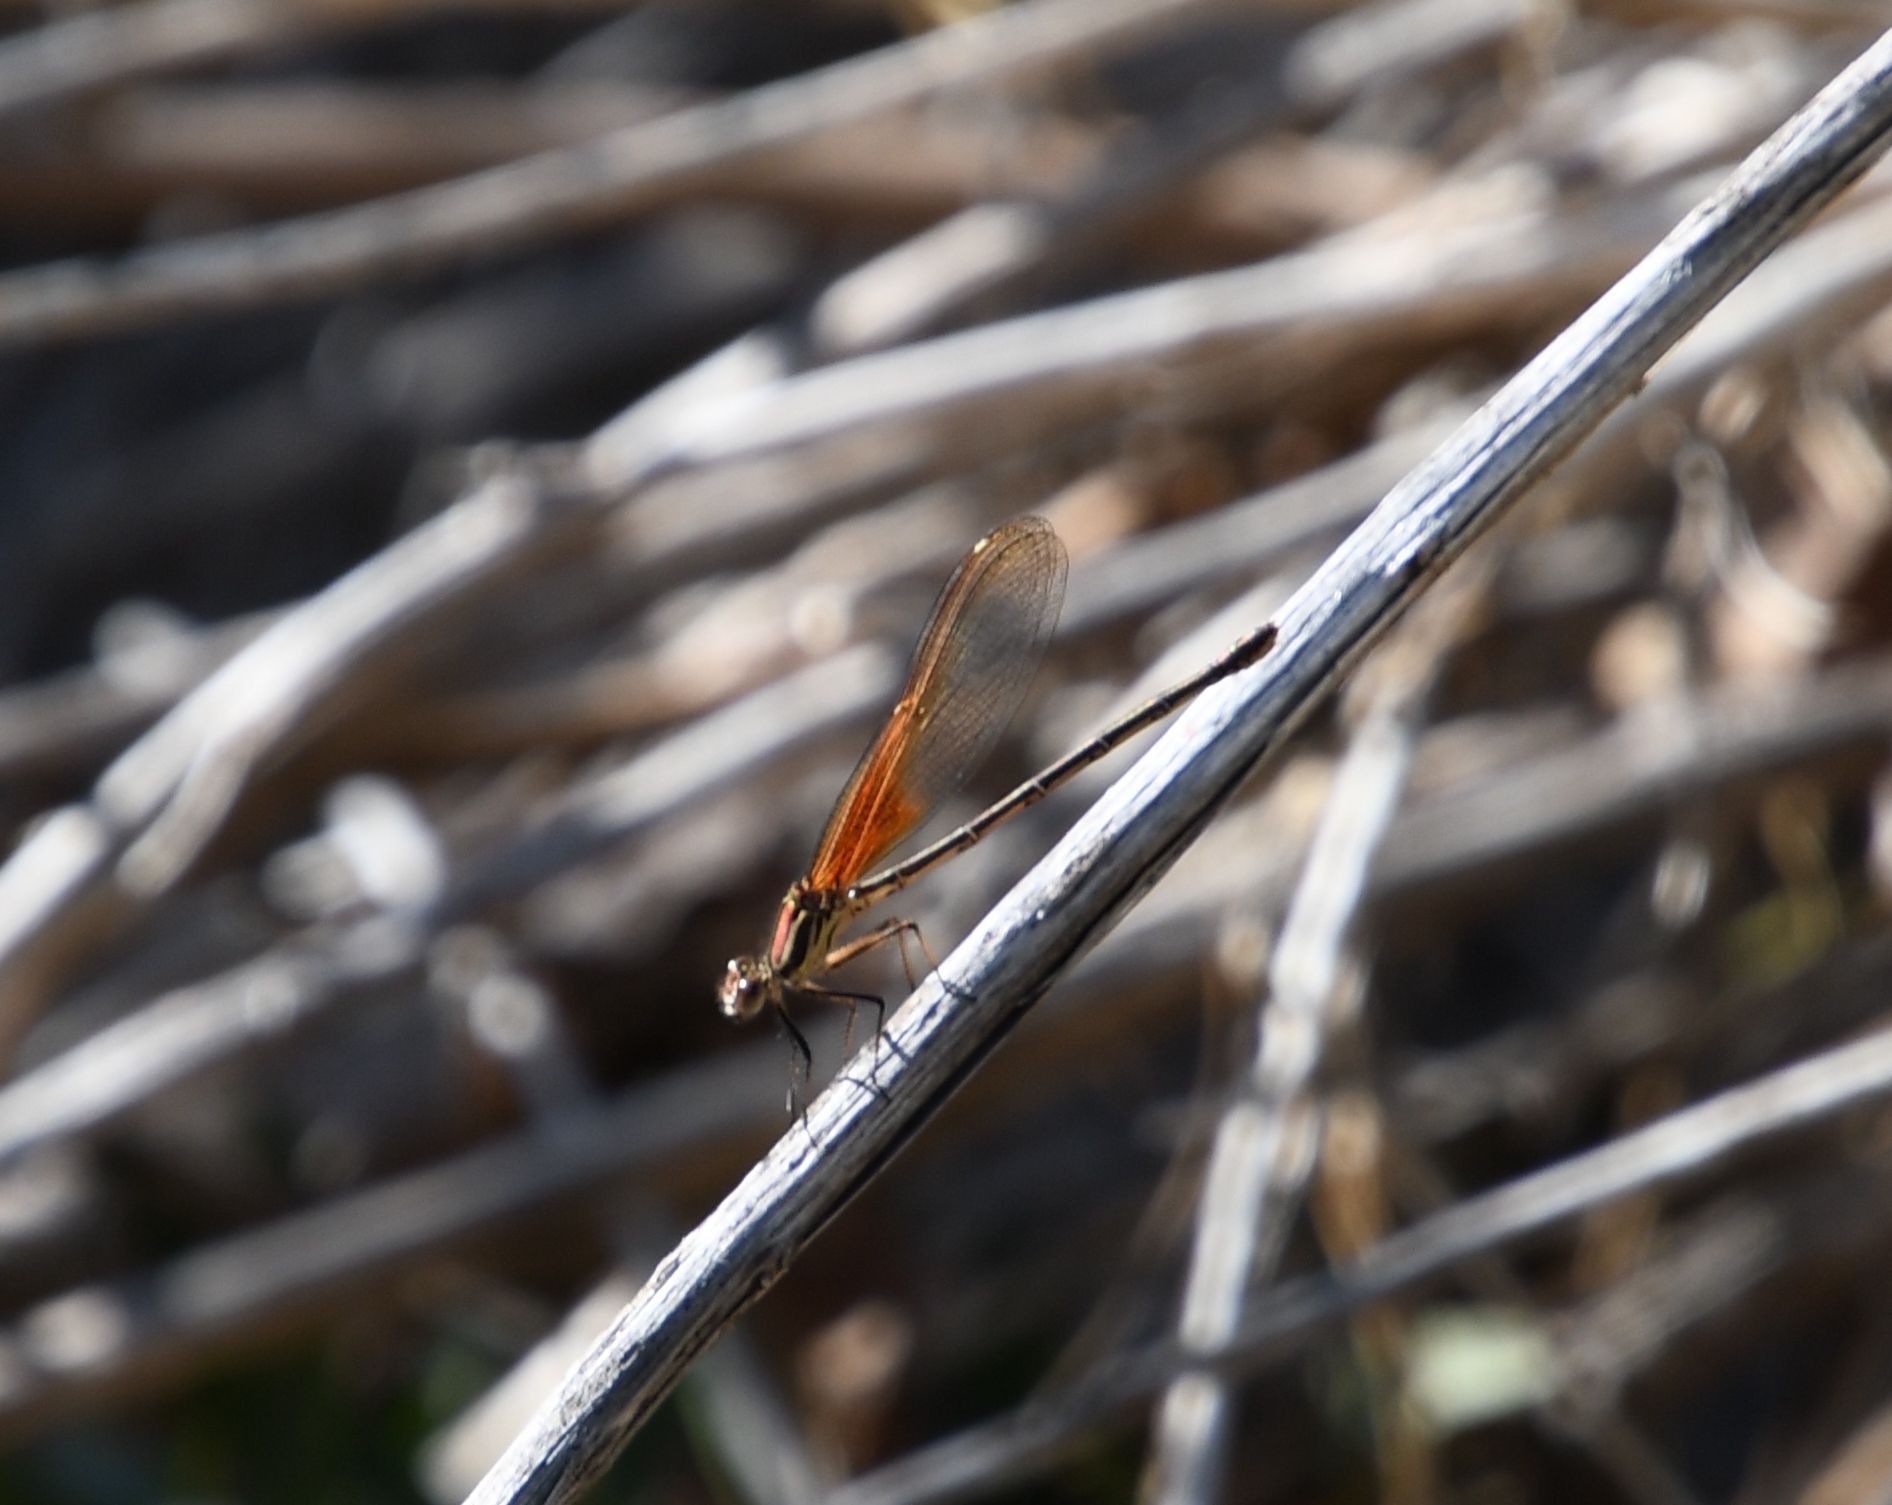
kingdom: Animalia
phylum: Arthropoda
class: Insecta
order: Odonata
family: Calopterygidae
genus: Hetaerina
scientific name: Hetaerina americana
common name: American rubyspot
